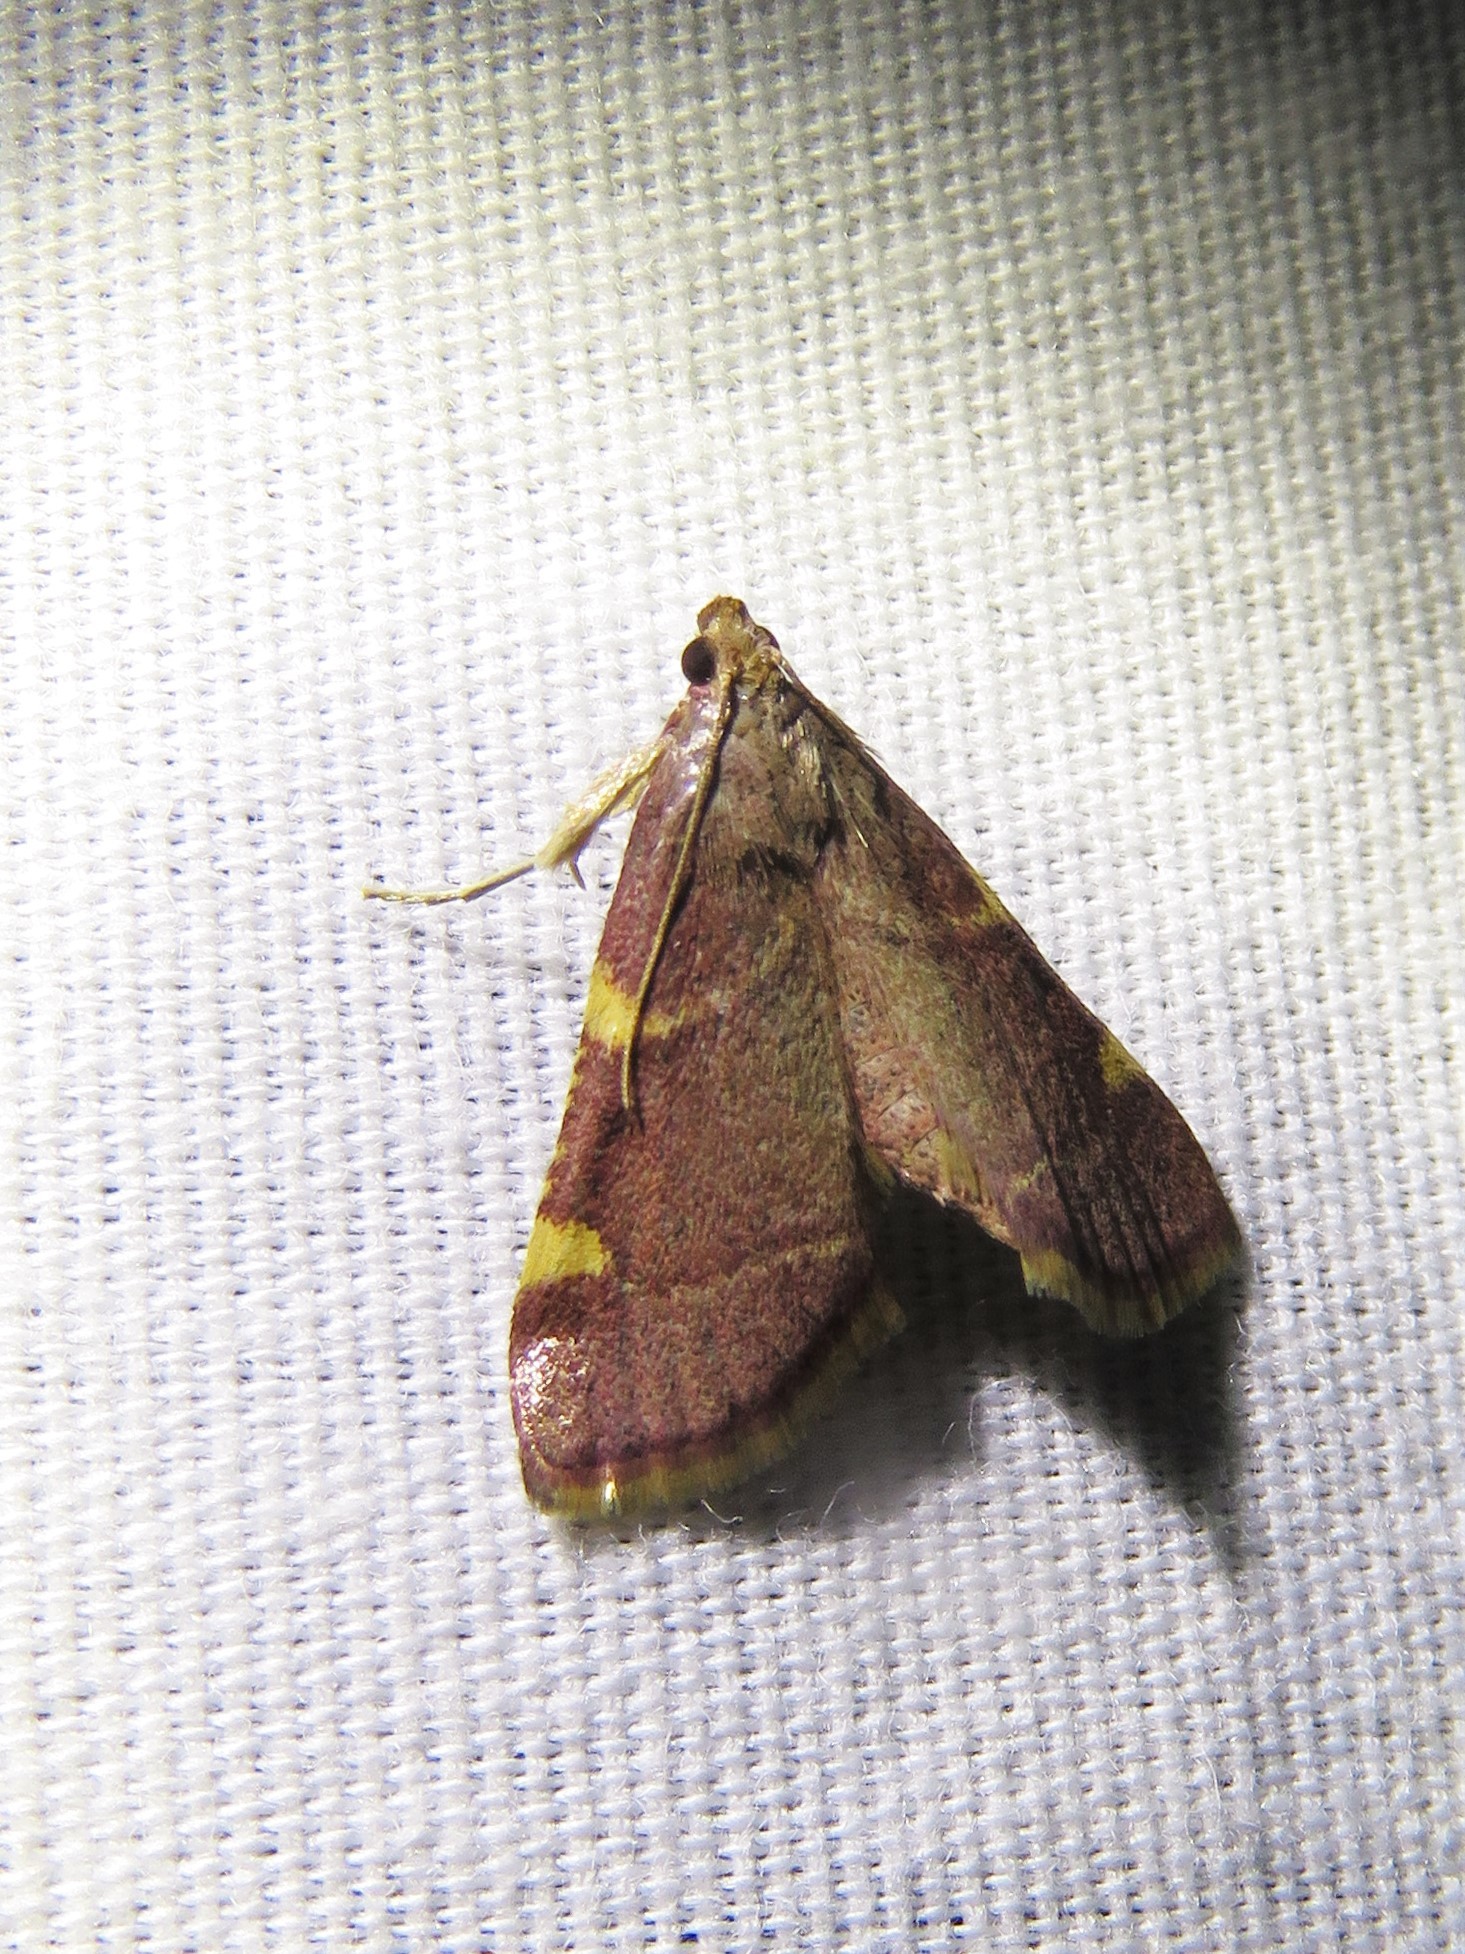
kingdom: Animalia
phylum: Arthropoda
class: Insecta
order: Lepidoptera
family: Pyralidae
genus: Hypsopygia
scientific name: Hypsopygia olinalis
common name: Yellow-fringed dolichomia moth
